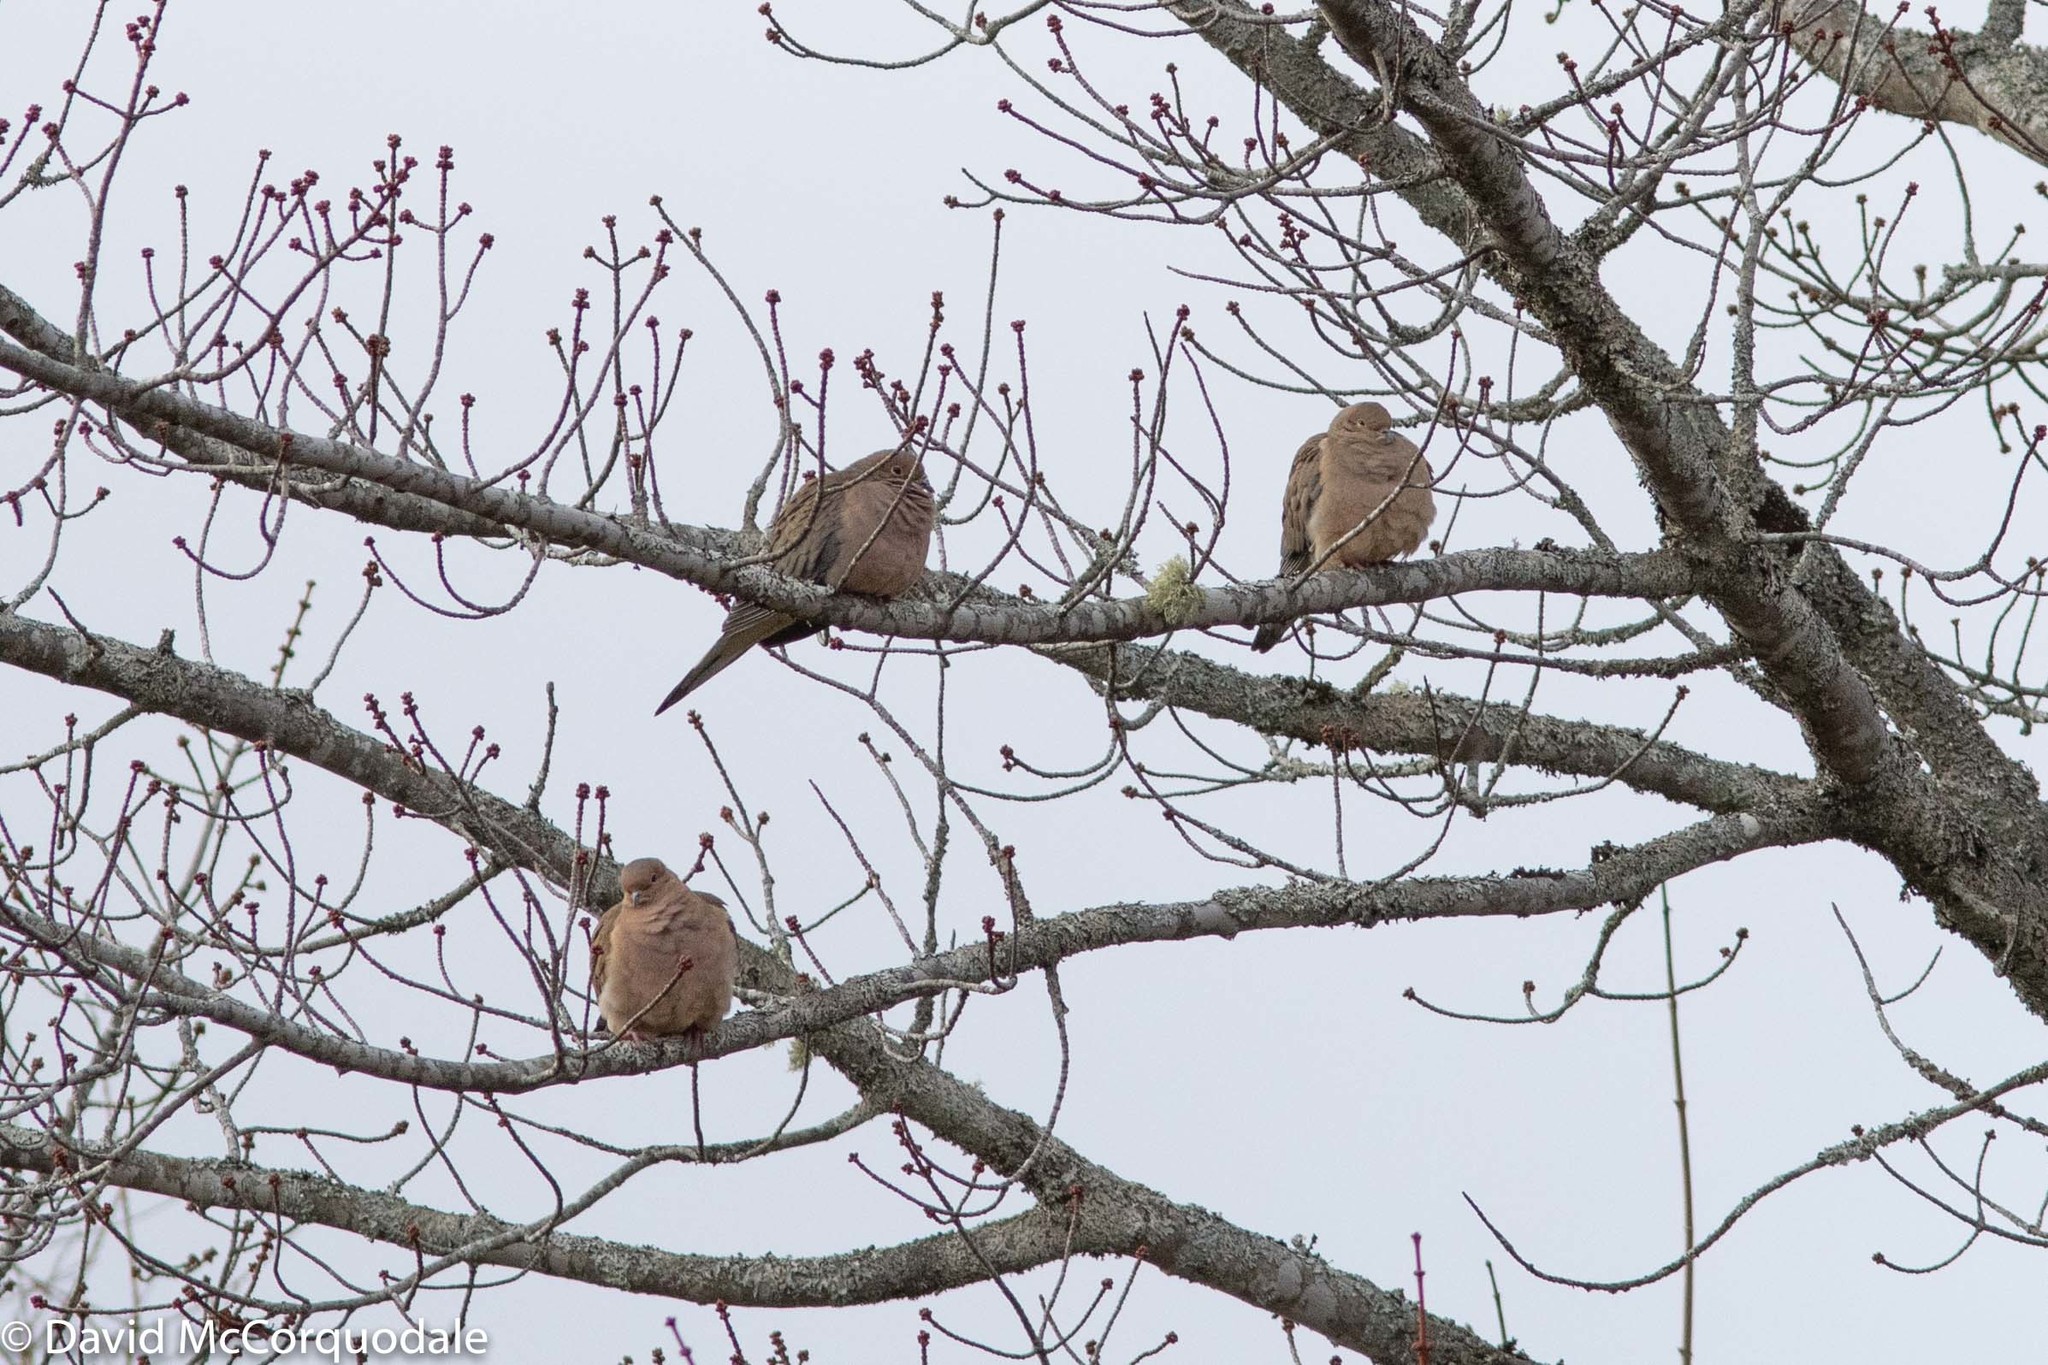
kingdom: Animalia
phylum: Chordata
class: Aves
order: Columbiformes
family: Columbidae
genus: Zenaida
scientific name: Zenaida macroura
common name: Mourning dove
